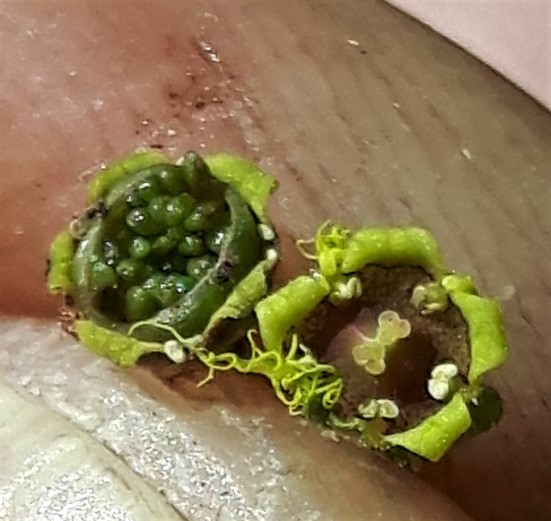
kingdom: Plantae
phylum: Tracheophyta
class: Magnoliopsida
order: Saxifragales
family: Saxifragaceae
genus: Pectiantia
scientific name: Pectiantia pentandra
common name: Alpine bishop's-cap
